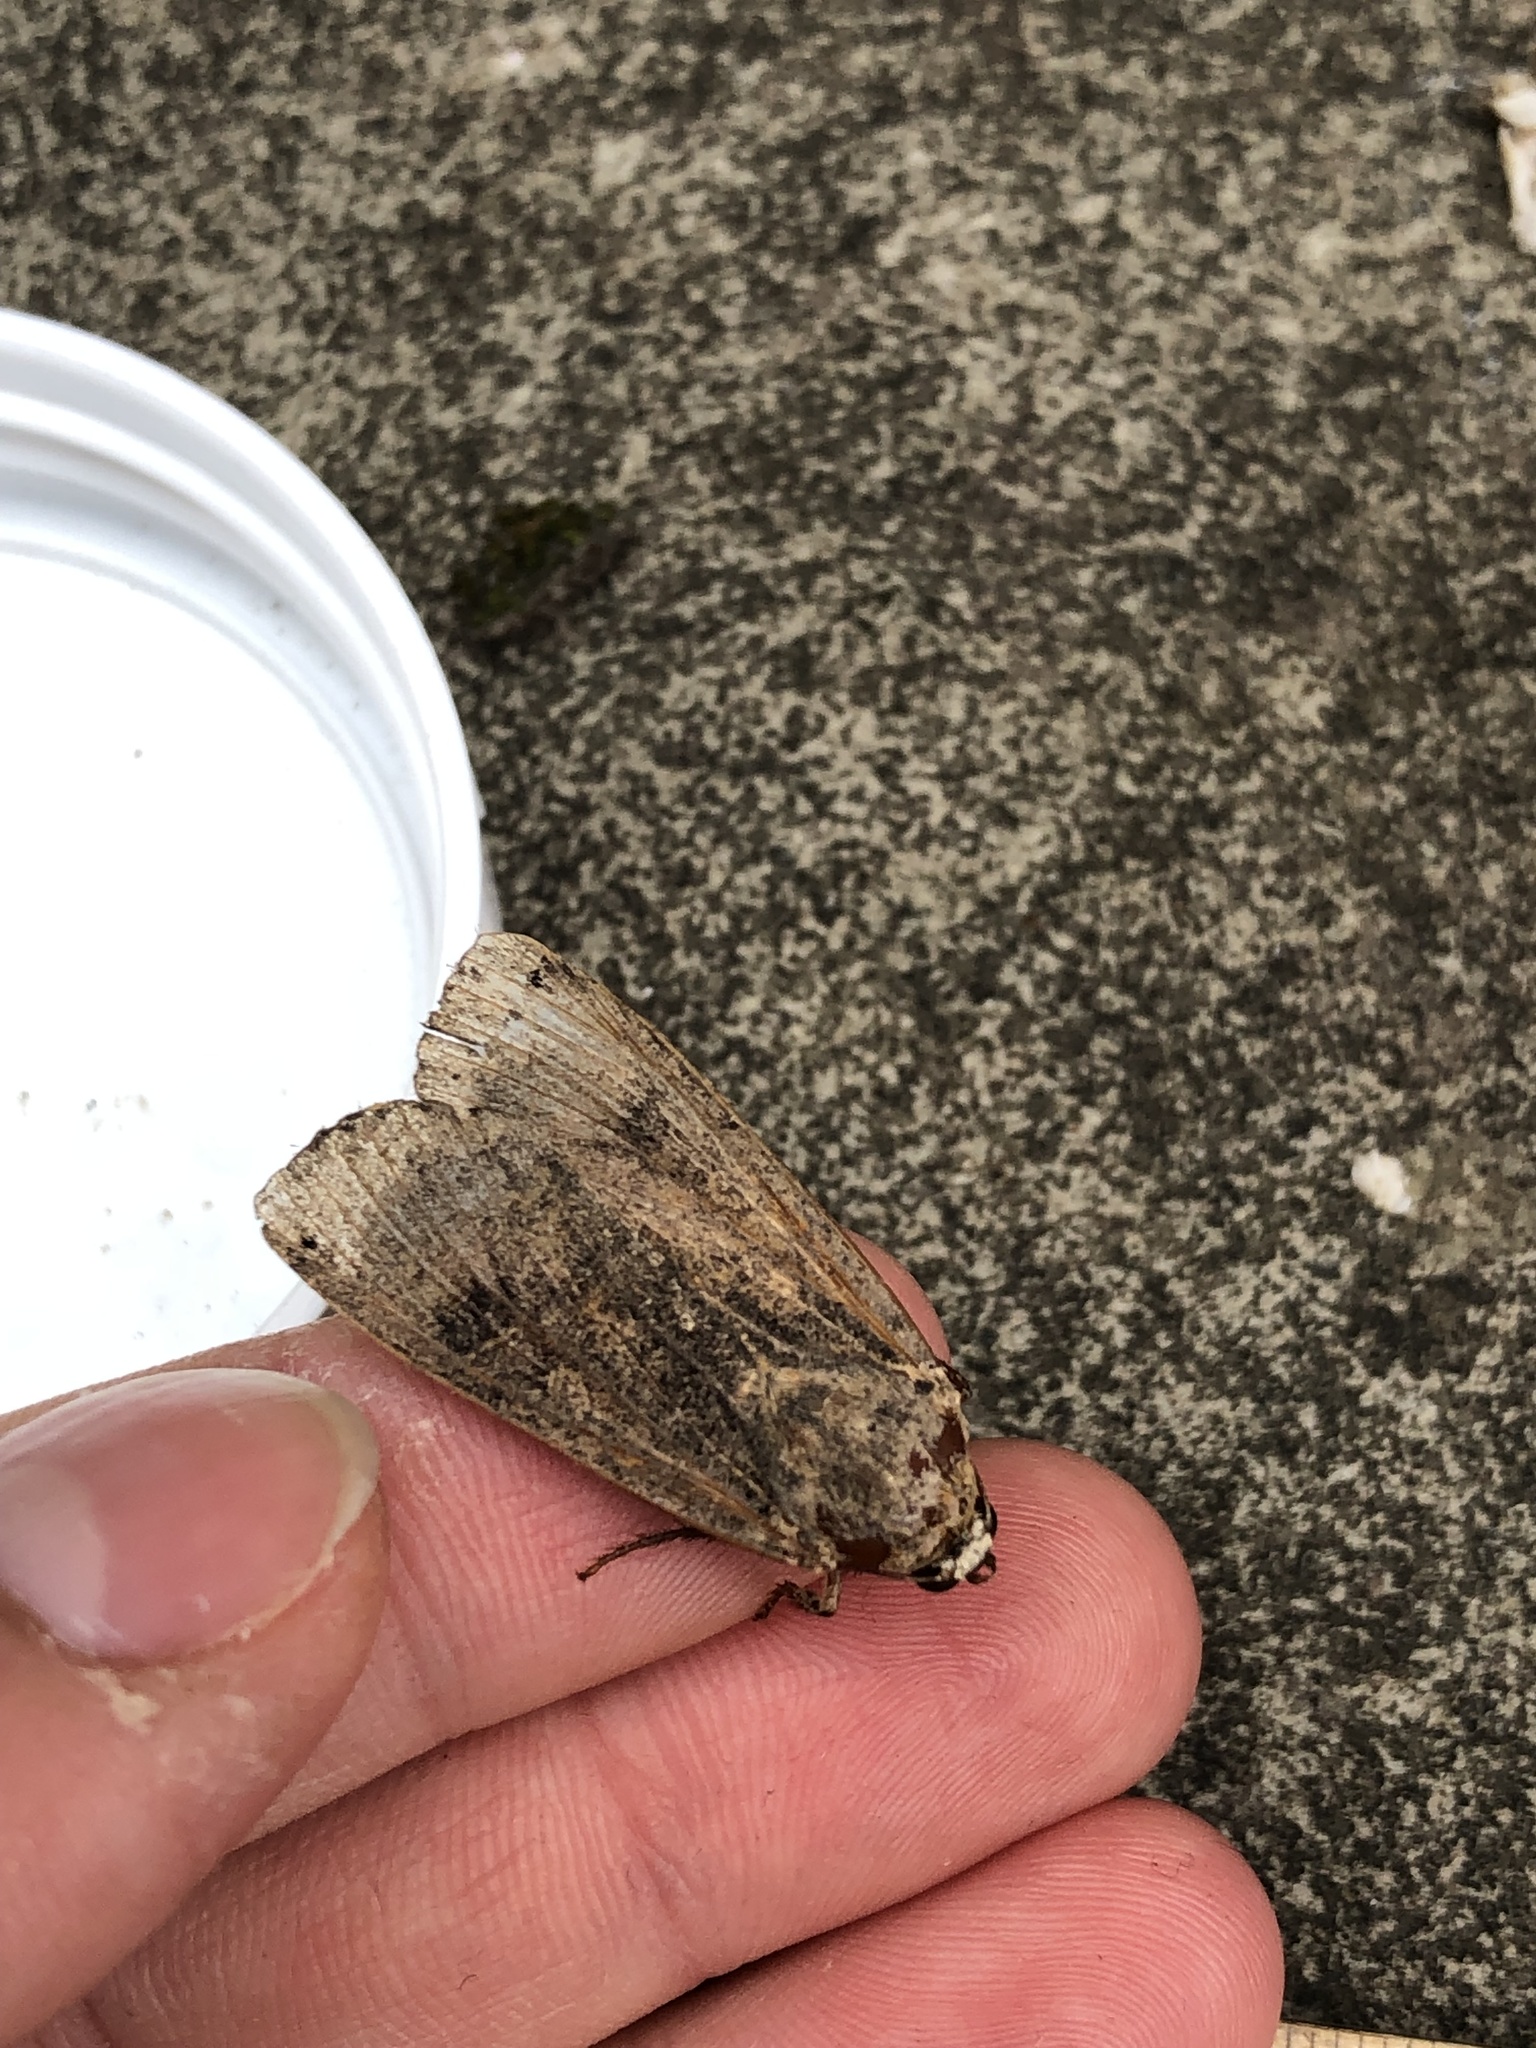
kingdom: Animalia
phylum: Arthropoda
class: Insecta
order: Lepidoptera
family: Noctuidae
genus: Noctua
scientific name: Noctua pronuba
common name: Large yellow underwing
